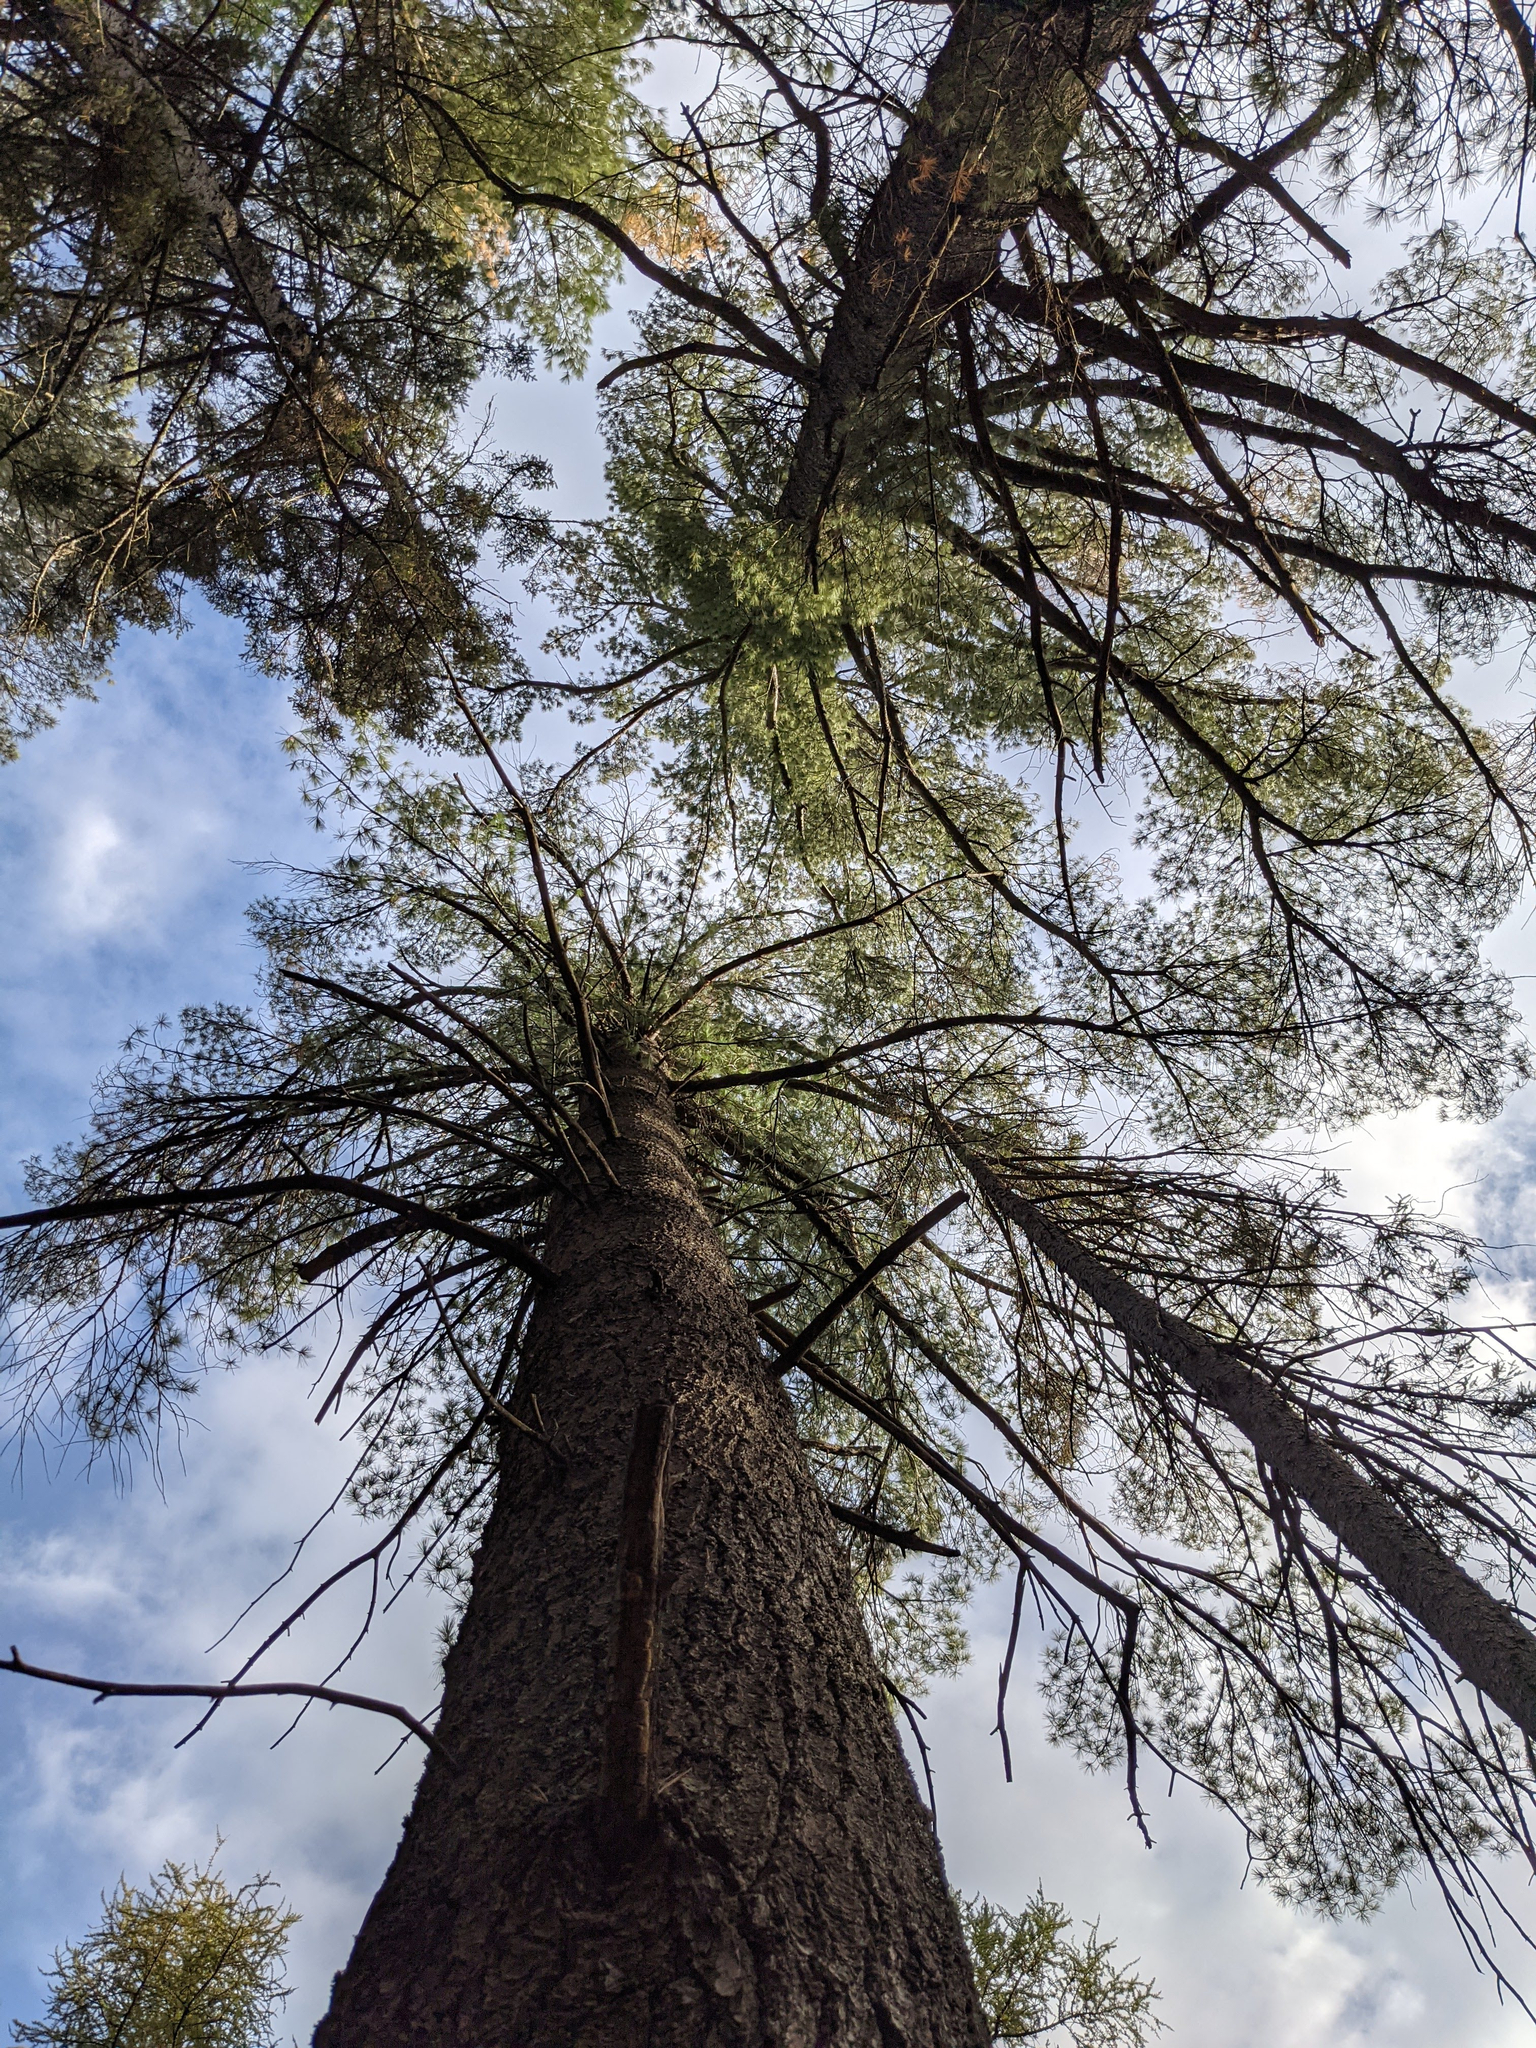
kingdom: Plantae
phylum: Tracheophyta
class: Pinopsida
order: Pinales
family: Pinaceae
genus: Pinus
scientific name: Pinus strobus
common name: Weymouth pine
